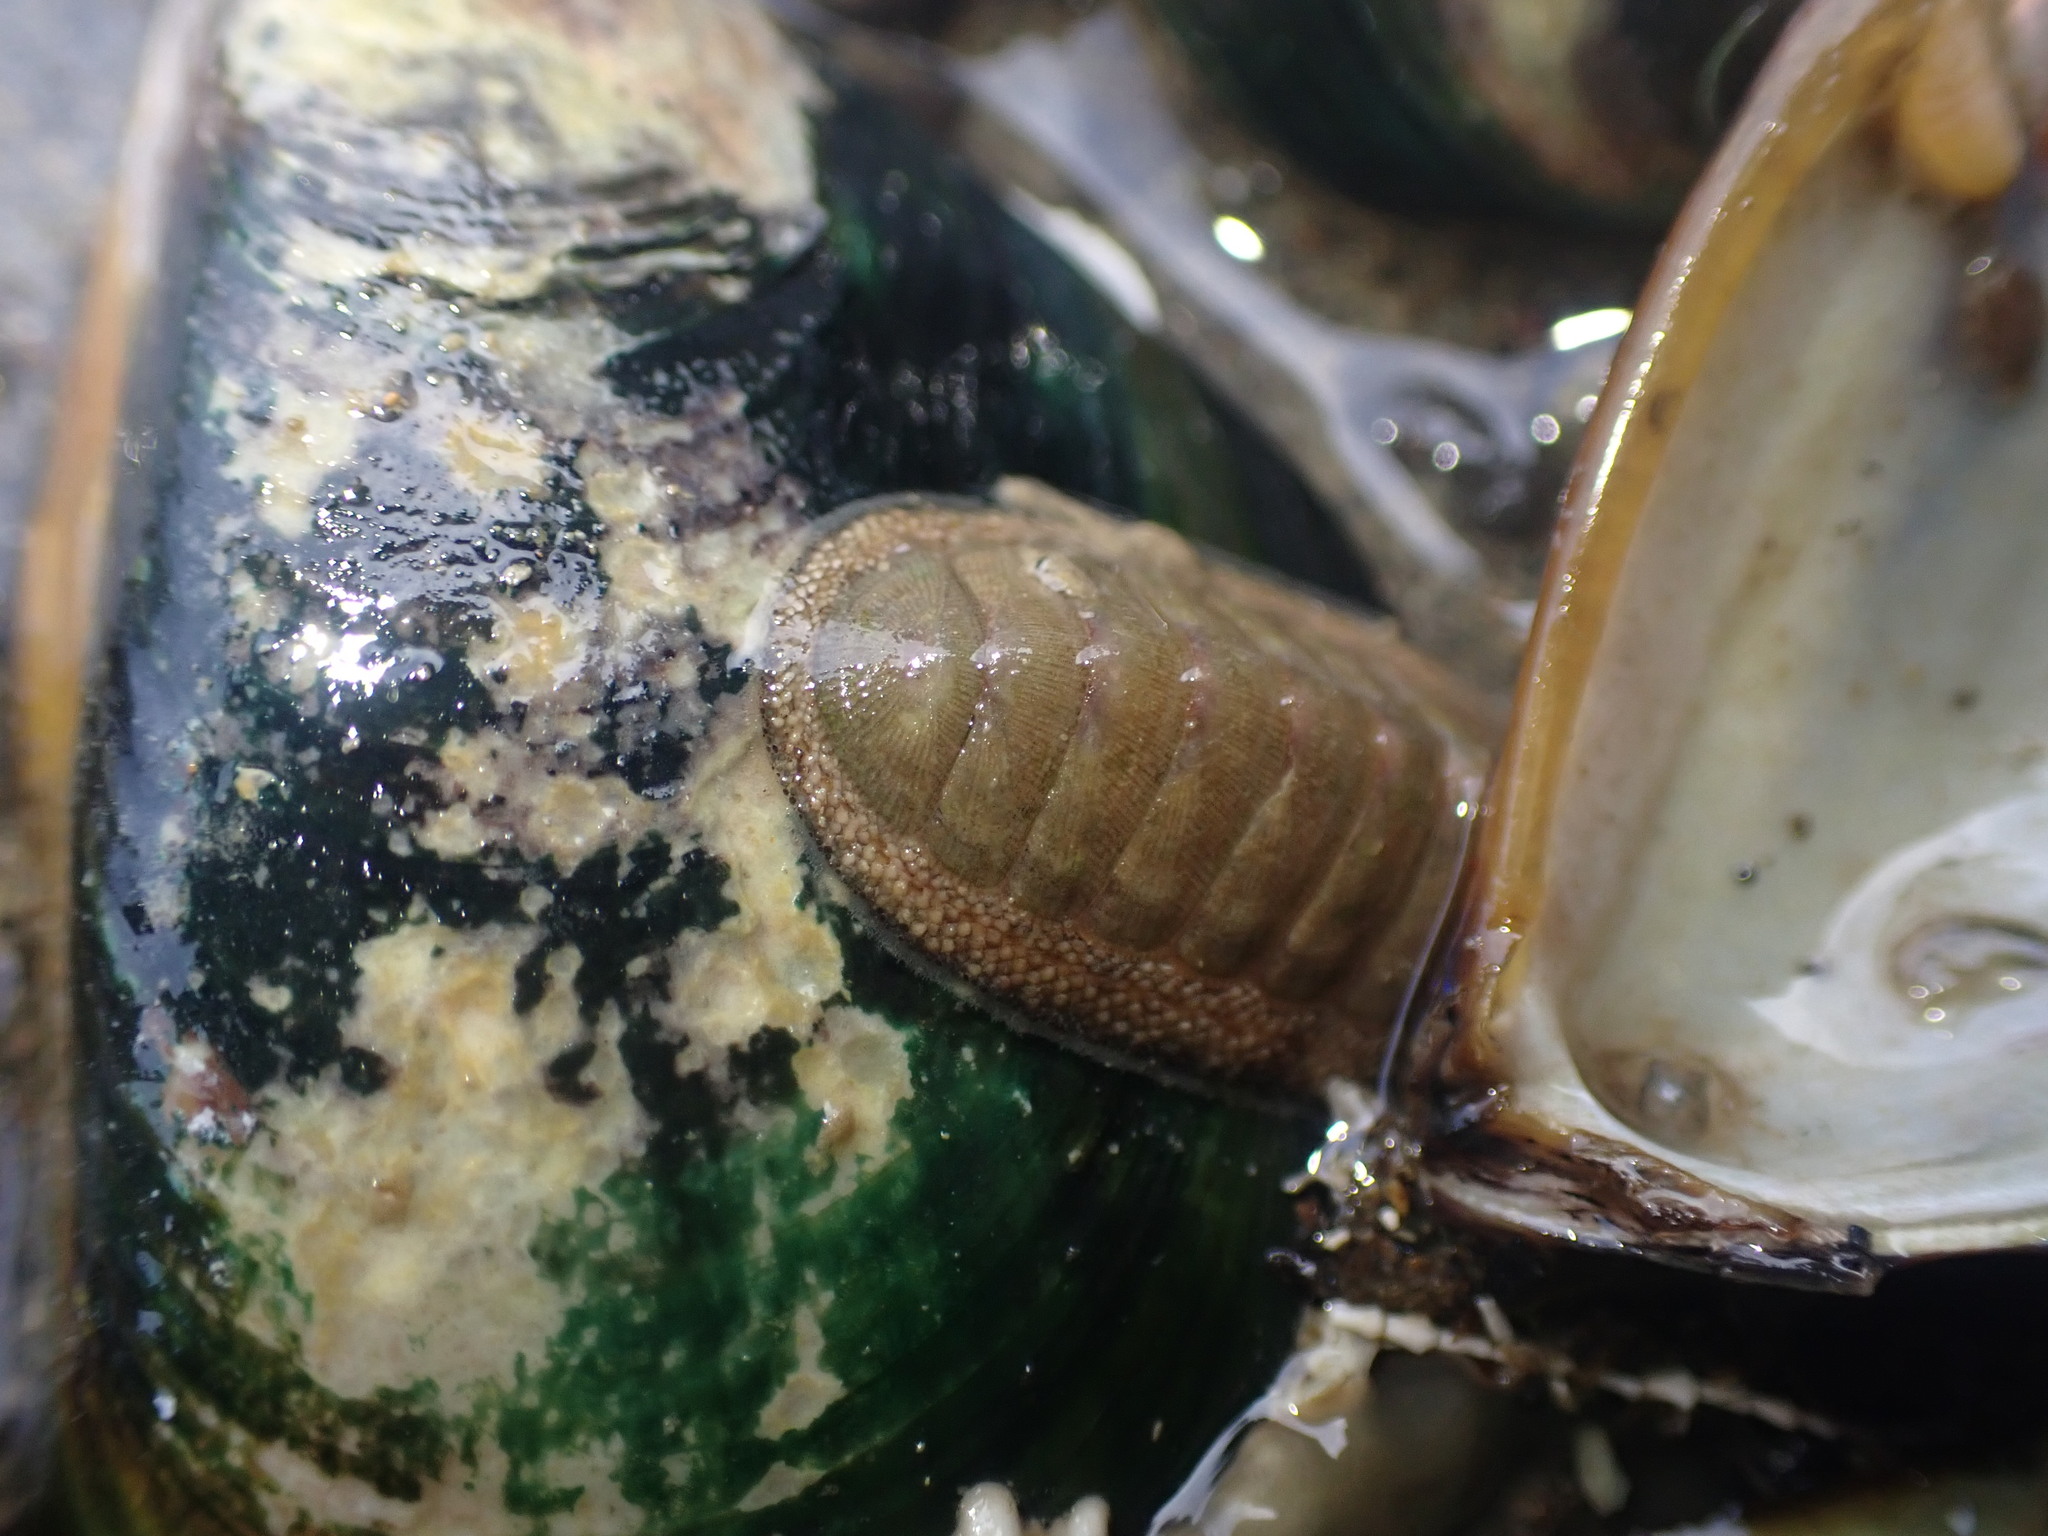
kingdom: Animalia
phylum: Mollusca
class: Polyplacophora
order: Chitonida
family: Chitonidae
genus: Chiton
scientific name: Chiton glaucus
